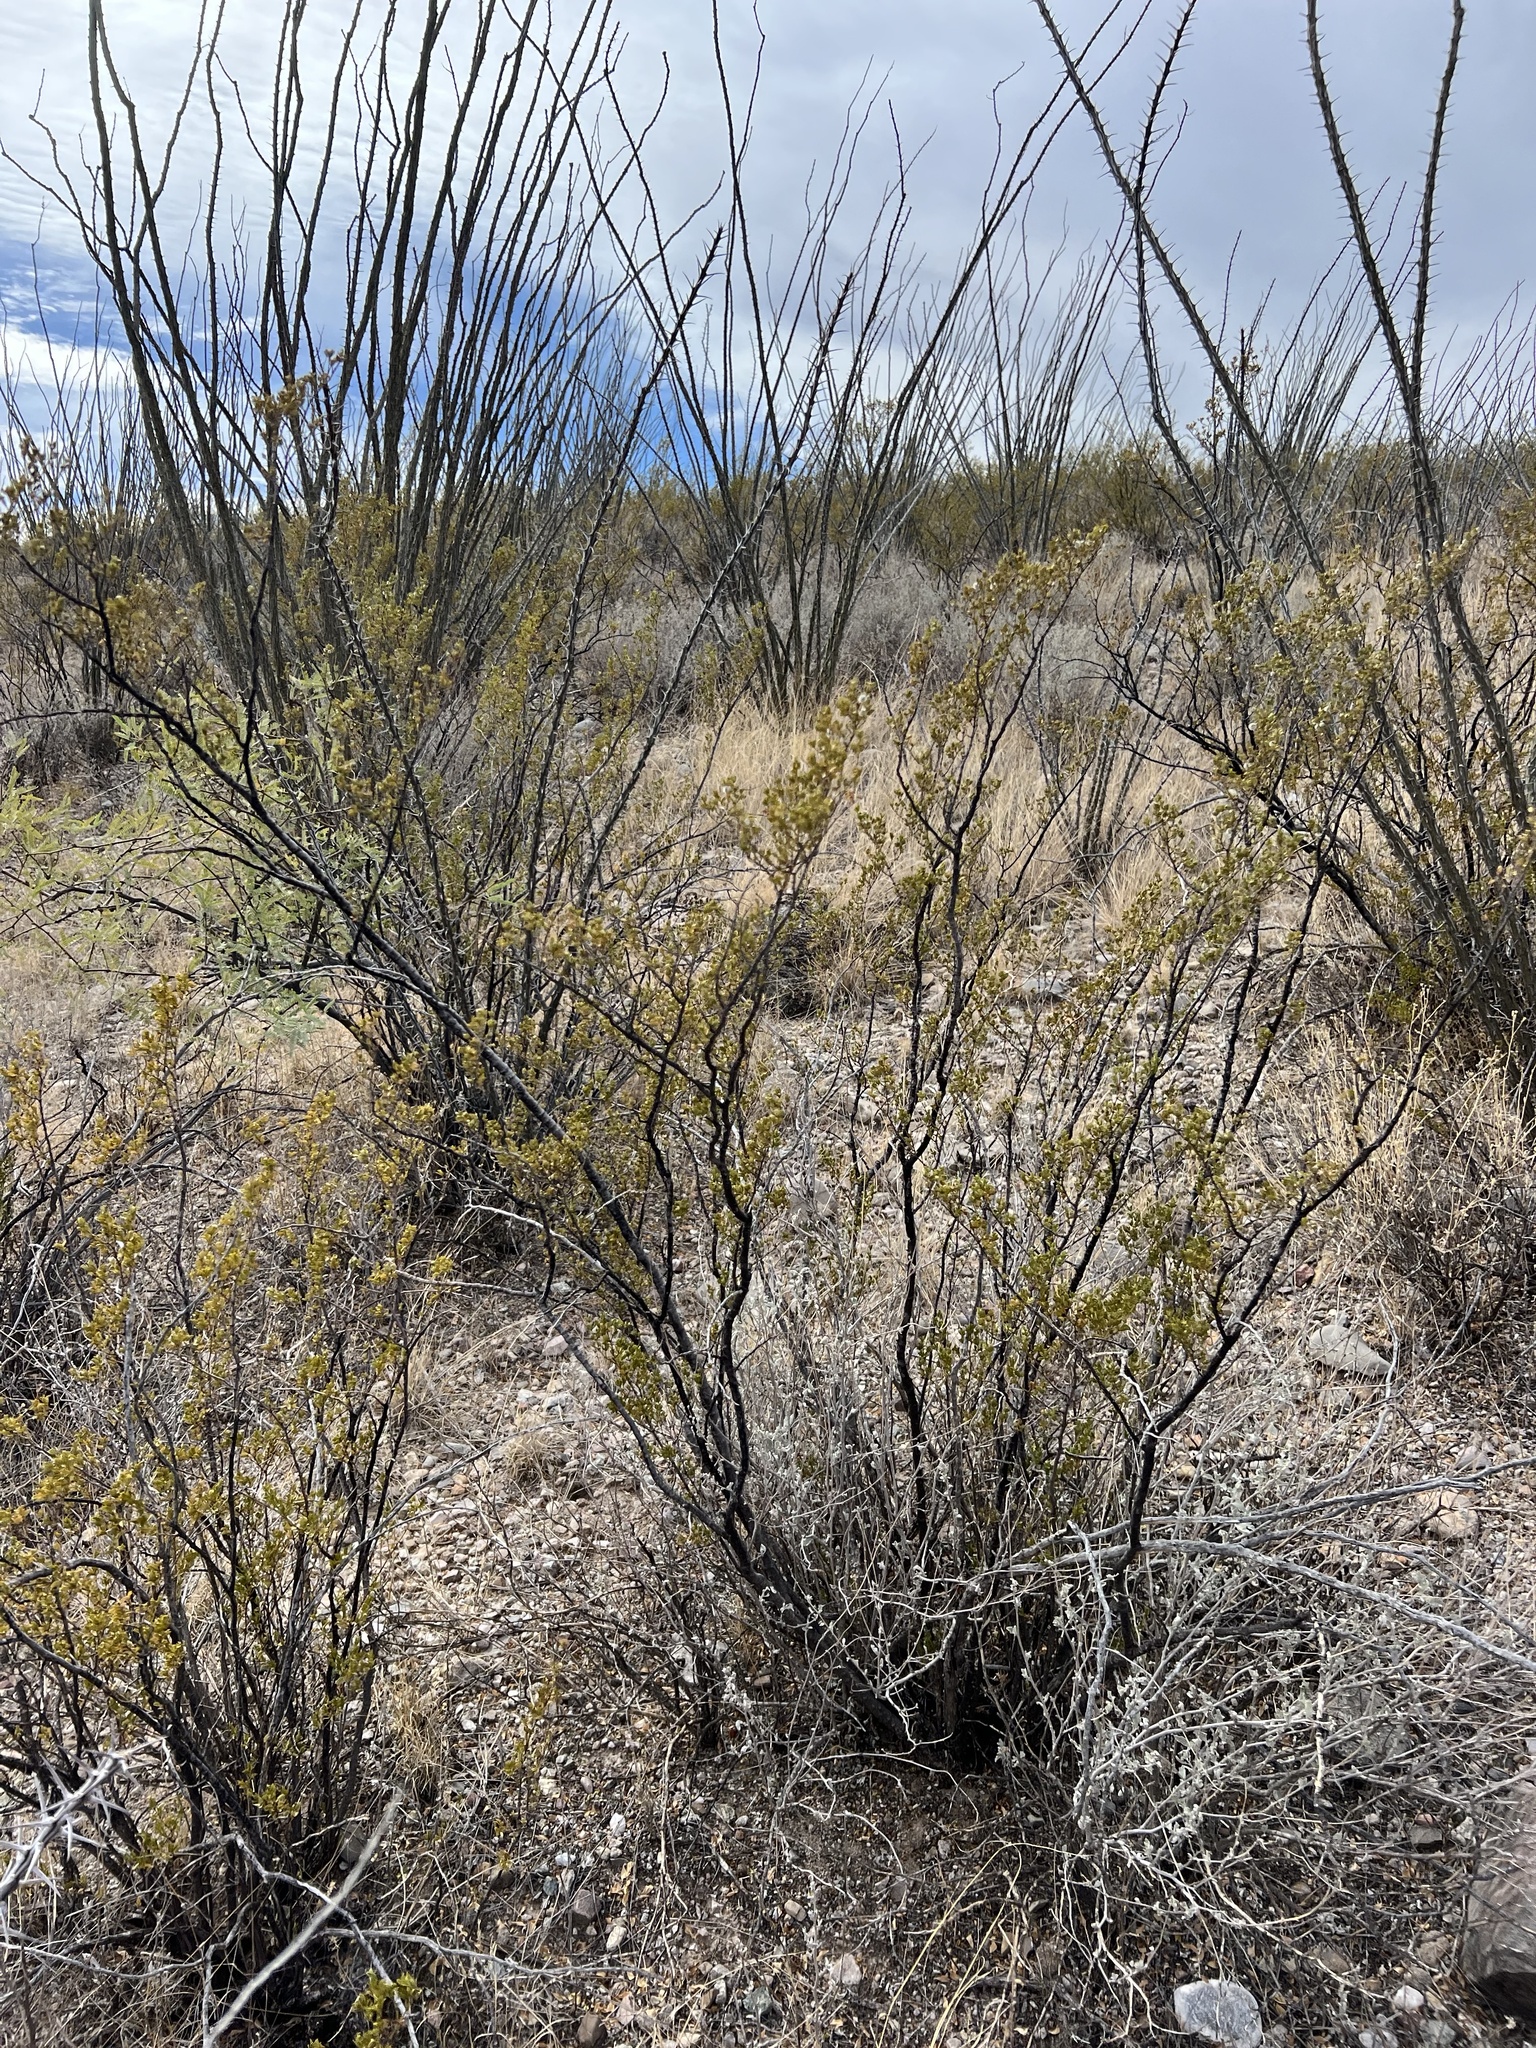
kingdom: Plantae
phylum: Tracheophyta
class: Magnoliopsida
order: Zygophyllales
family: Zygophyllaceae
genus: Larrea
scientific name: Larrea tridentata
